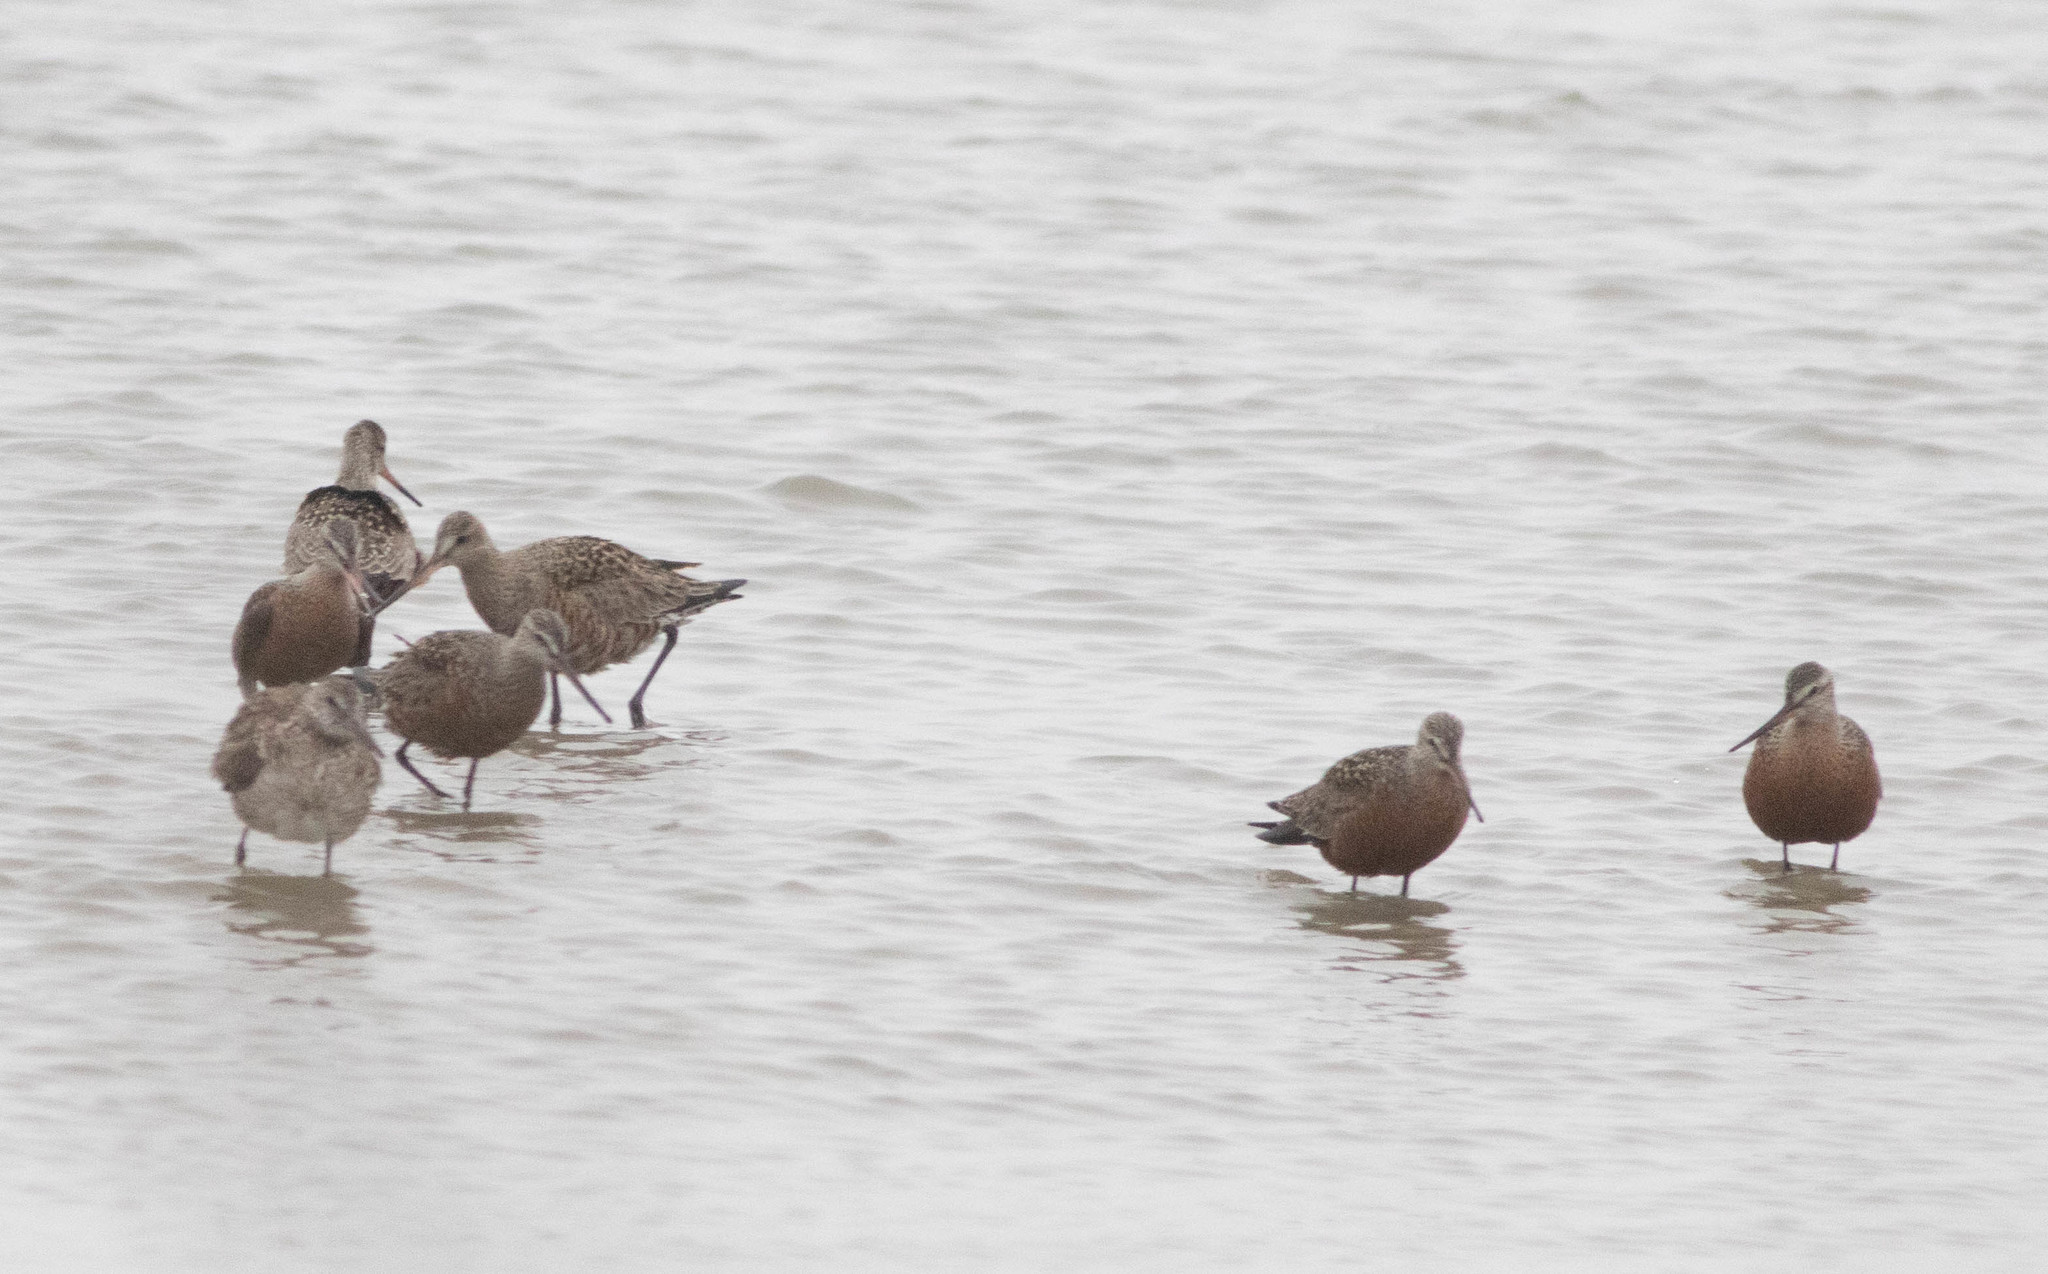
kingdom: Animalia
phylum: Chordata
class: Aves
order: Charadriiformes
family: Scolopacidae
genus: Limosa
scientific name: Limosa haemastica
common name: Hudsonian godwit
